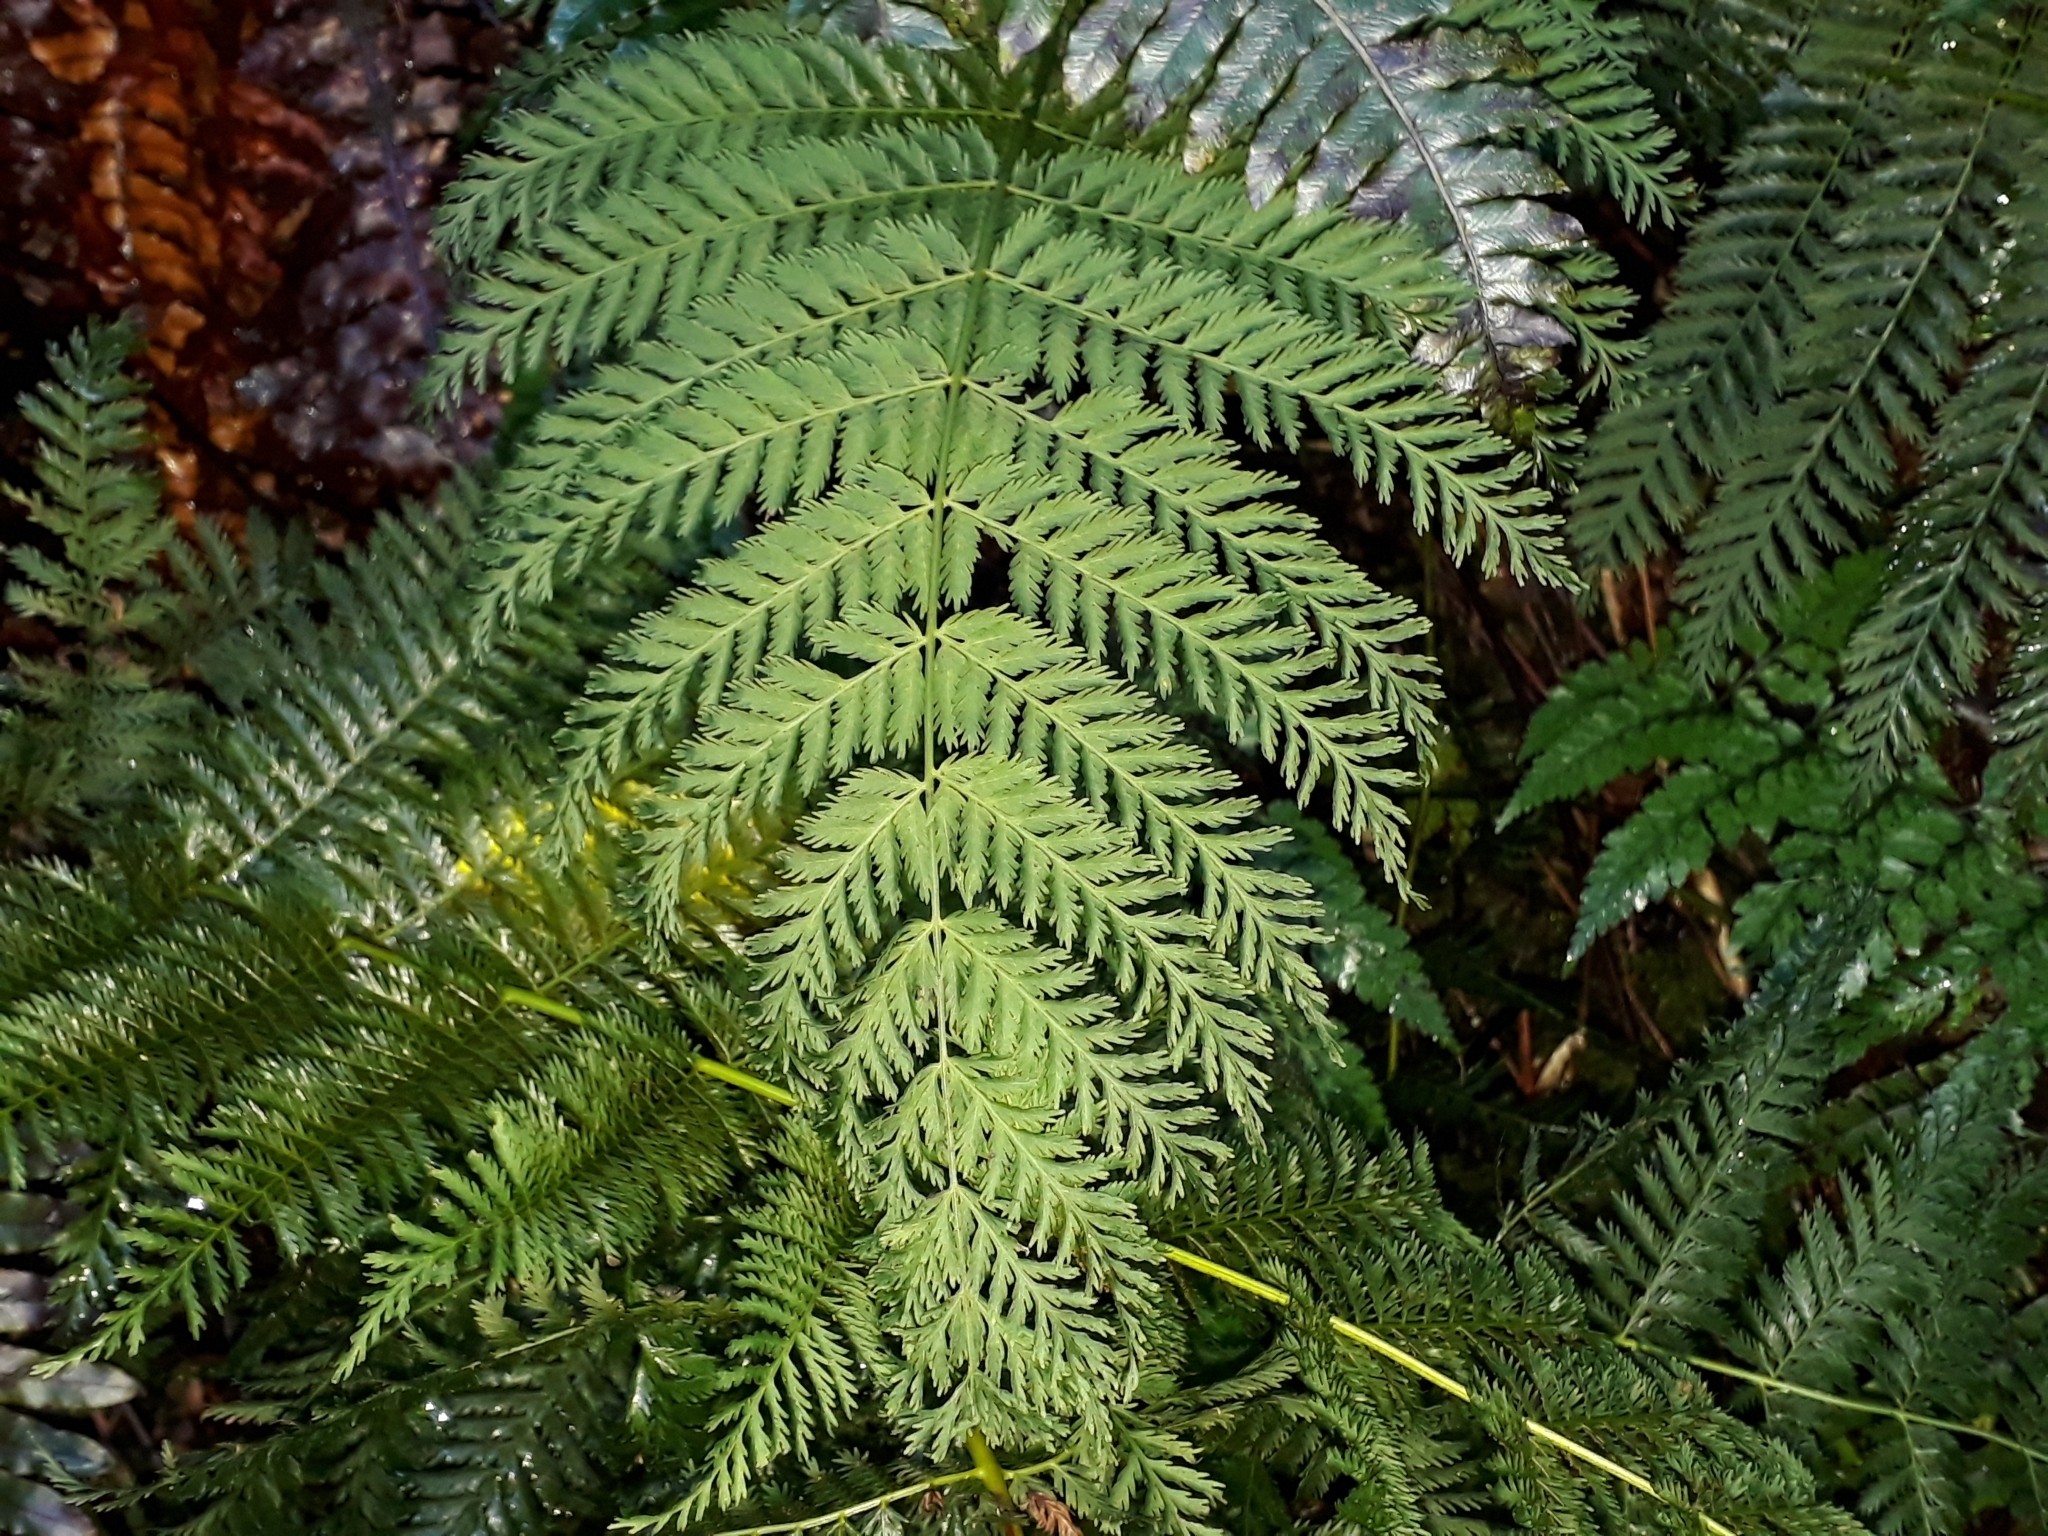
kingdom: Plantae
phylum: Tracheophyta
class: Polypodiopsida
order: Osmundales
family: Osmundaceae
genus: Leptopteris
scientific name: Leptopteris hymenophylloides
